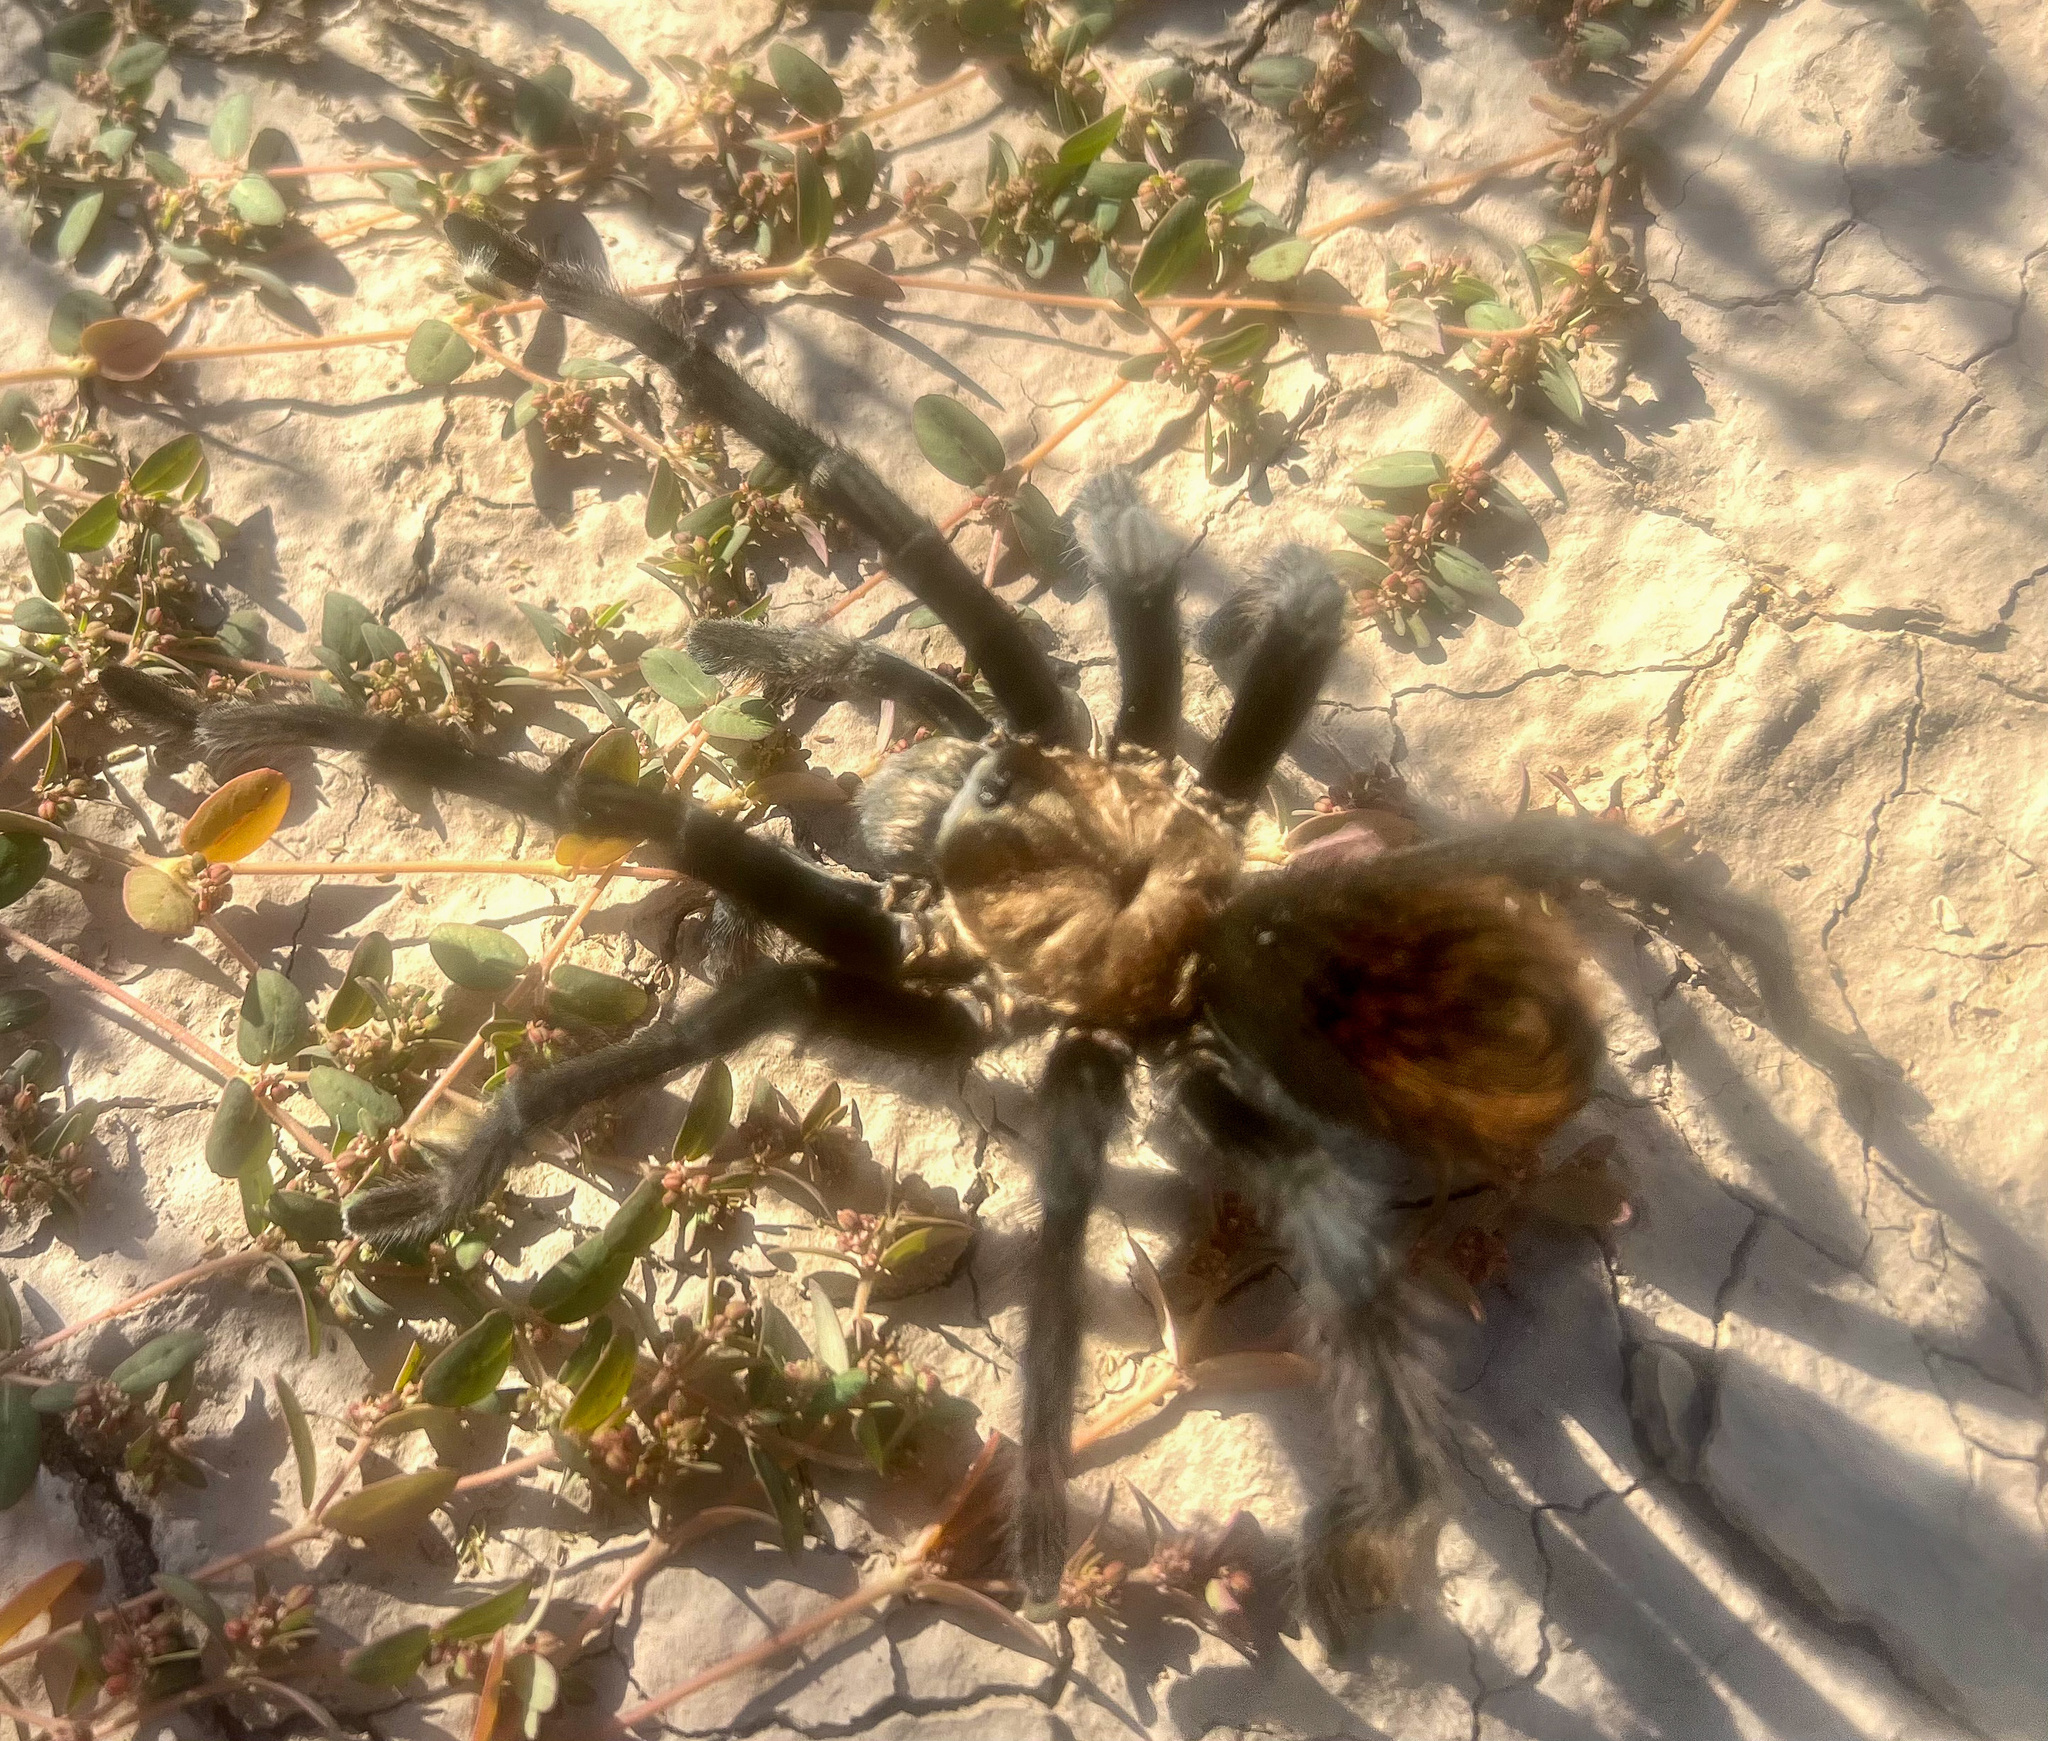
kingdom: Animalia
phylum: Arthropoda
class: Arachnida
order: Araneae
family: Theraphosidae
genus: Aphonopelma
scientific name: Aphonopelma iodius
